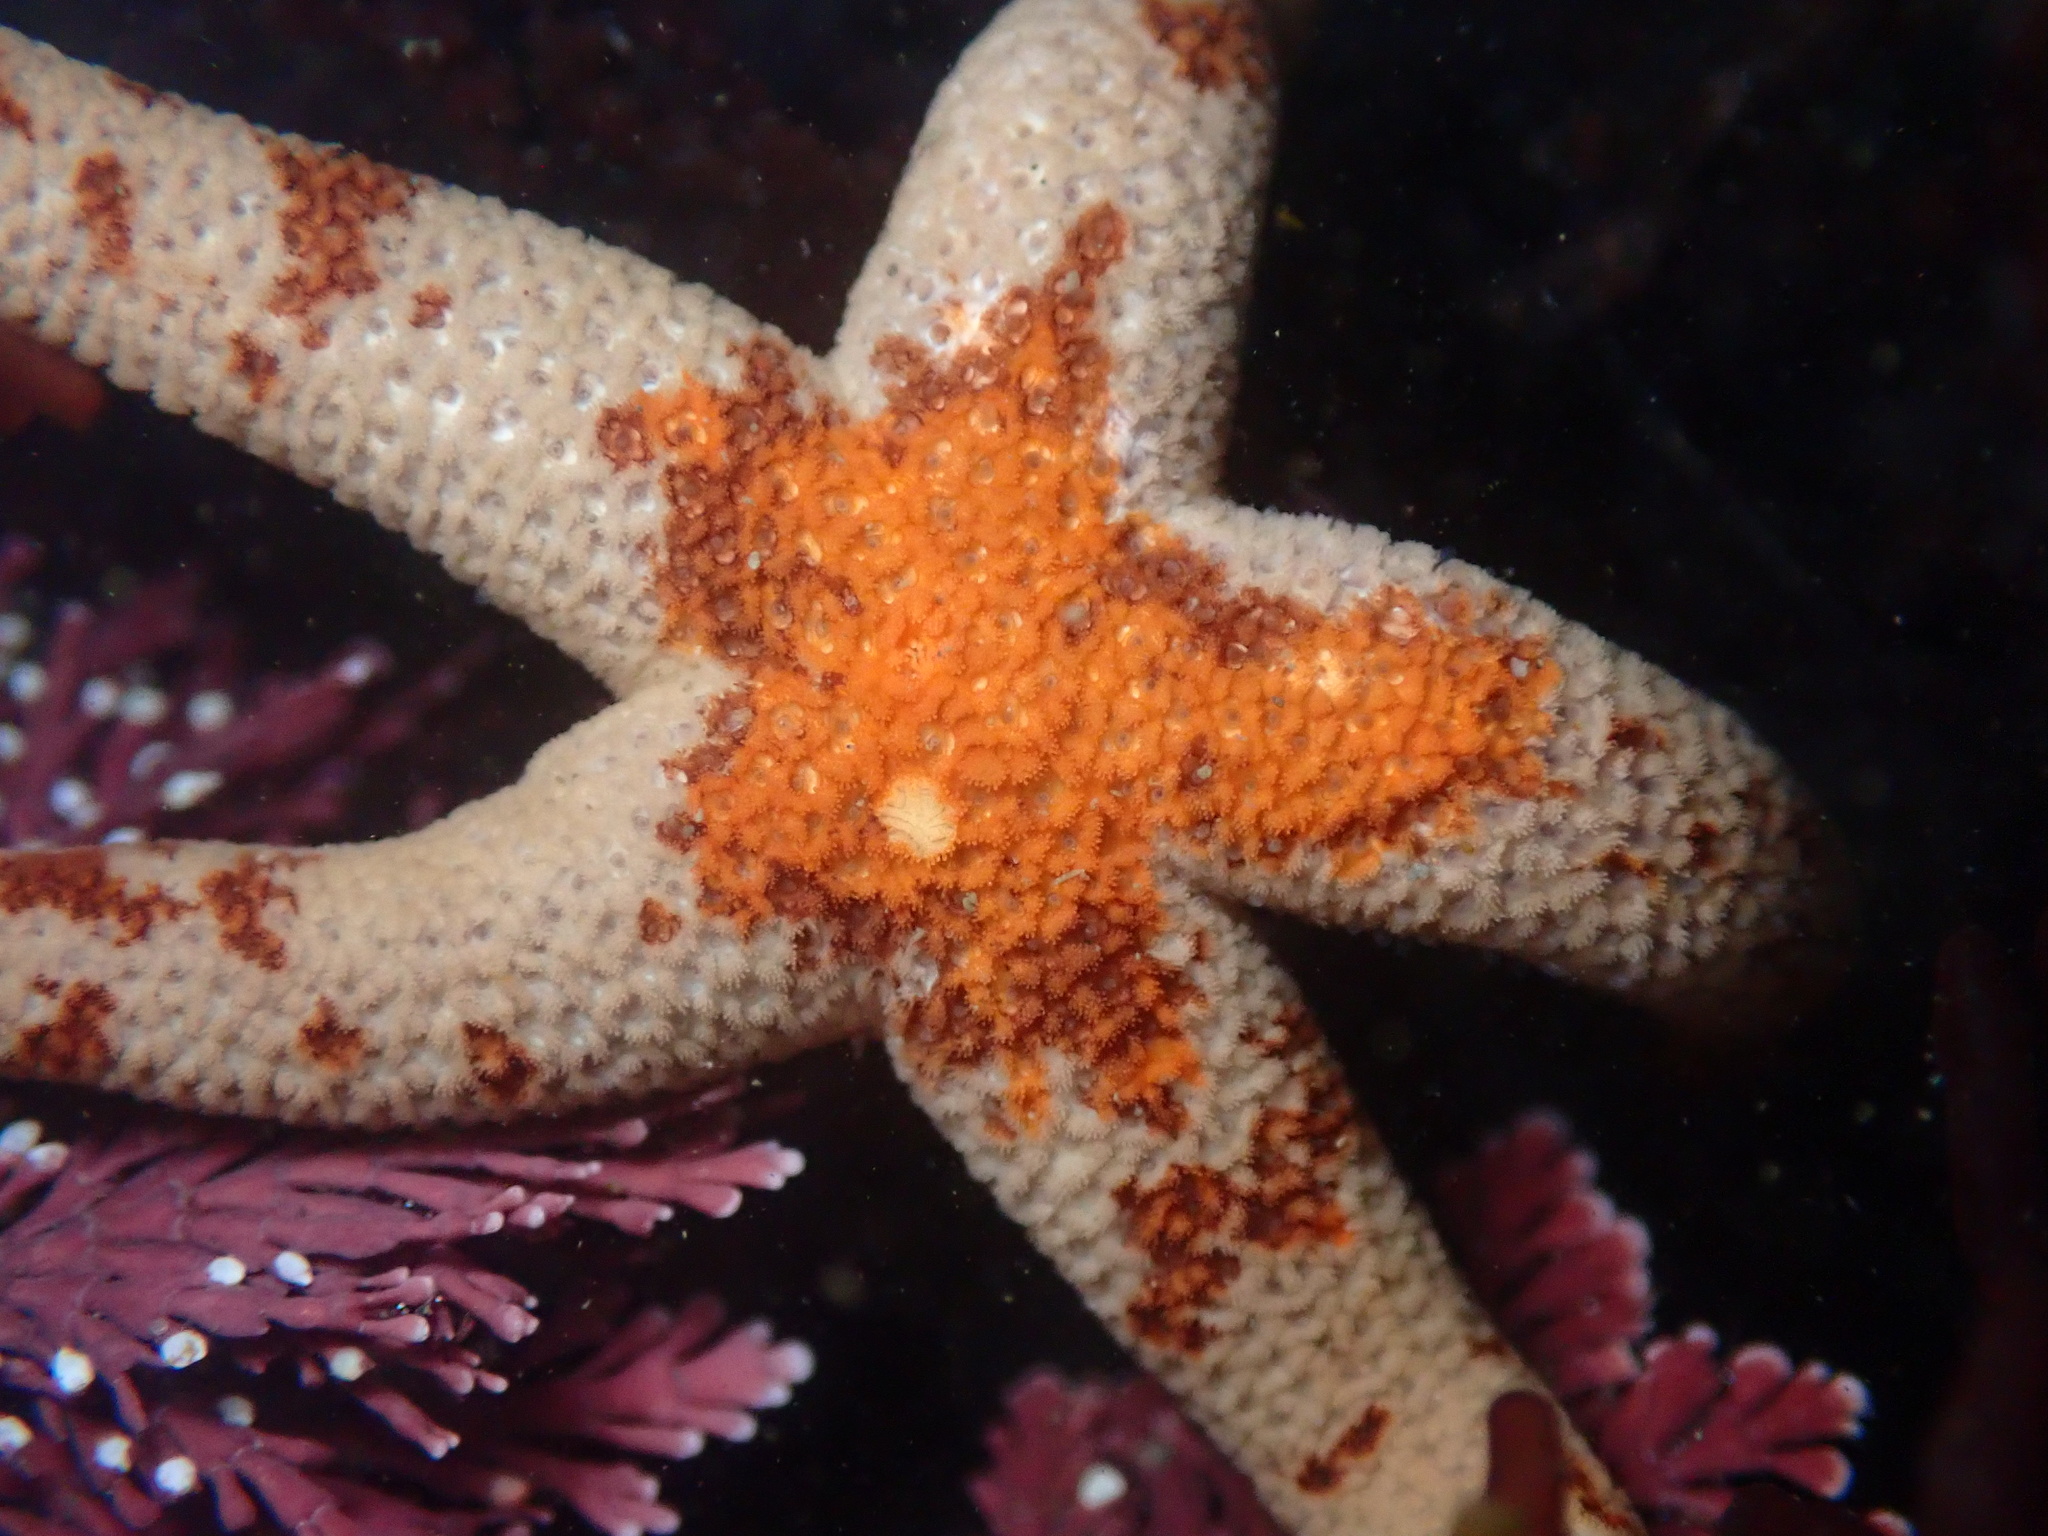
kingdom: Animalia
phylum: Echinodermata
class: Asteroidea
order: Spinulosida
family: Echinasteridae
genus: Henricia
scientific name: Henricia pumila
